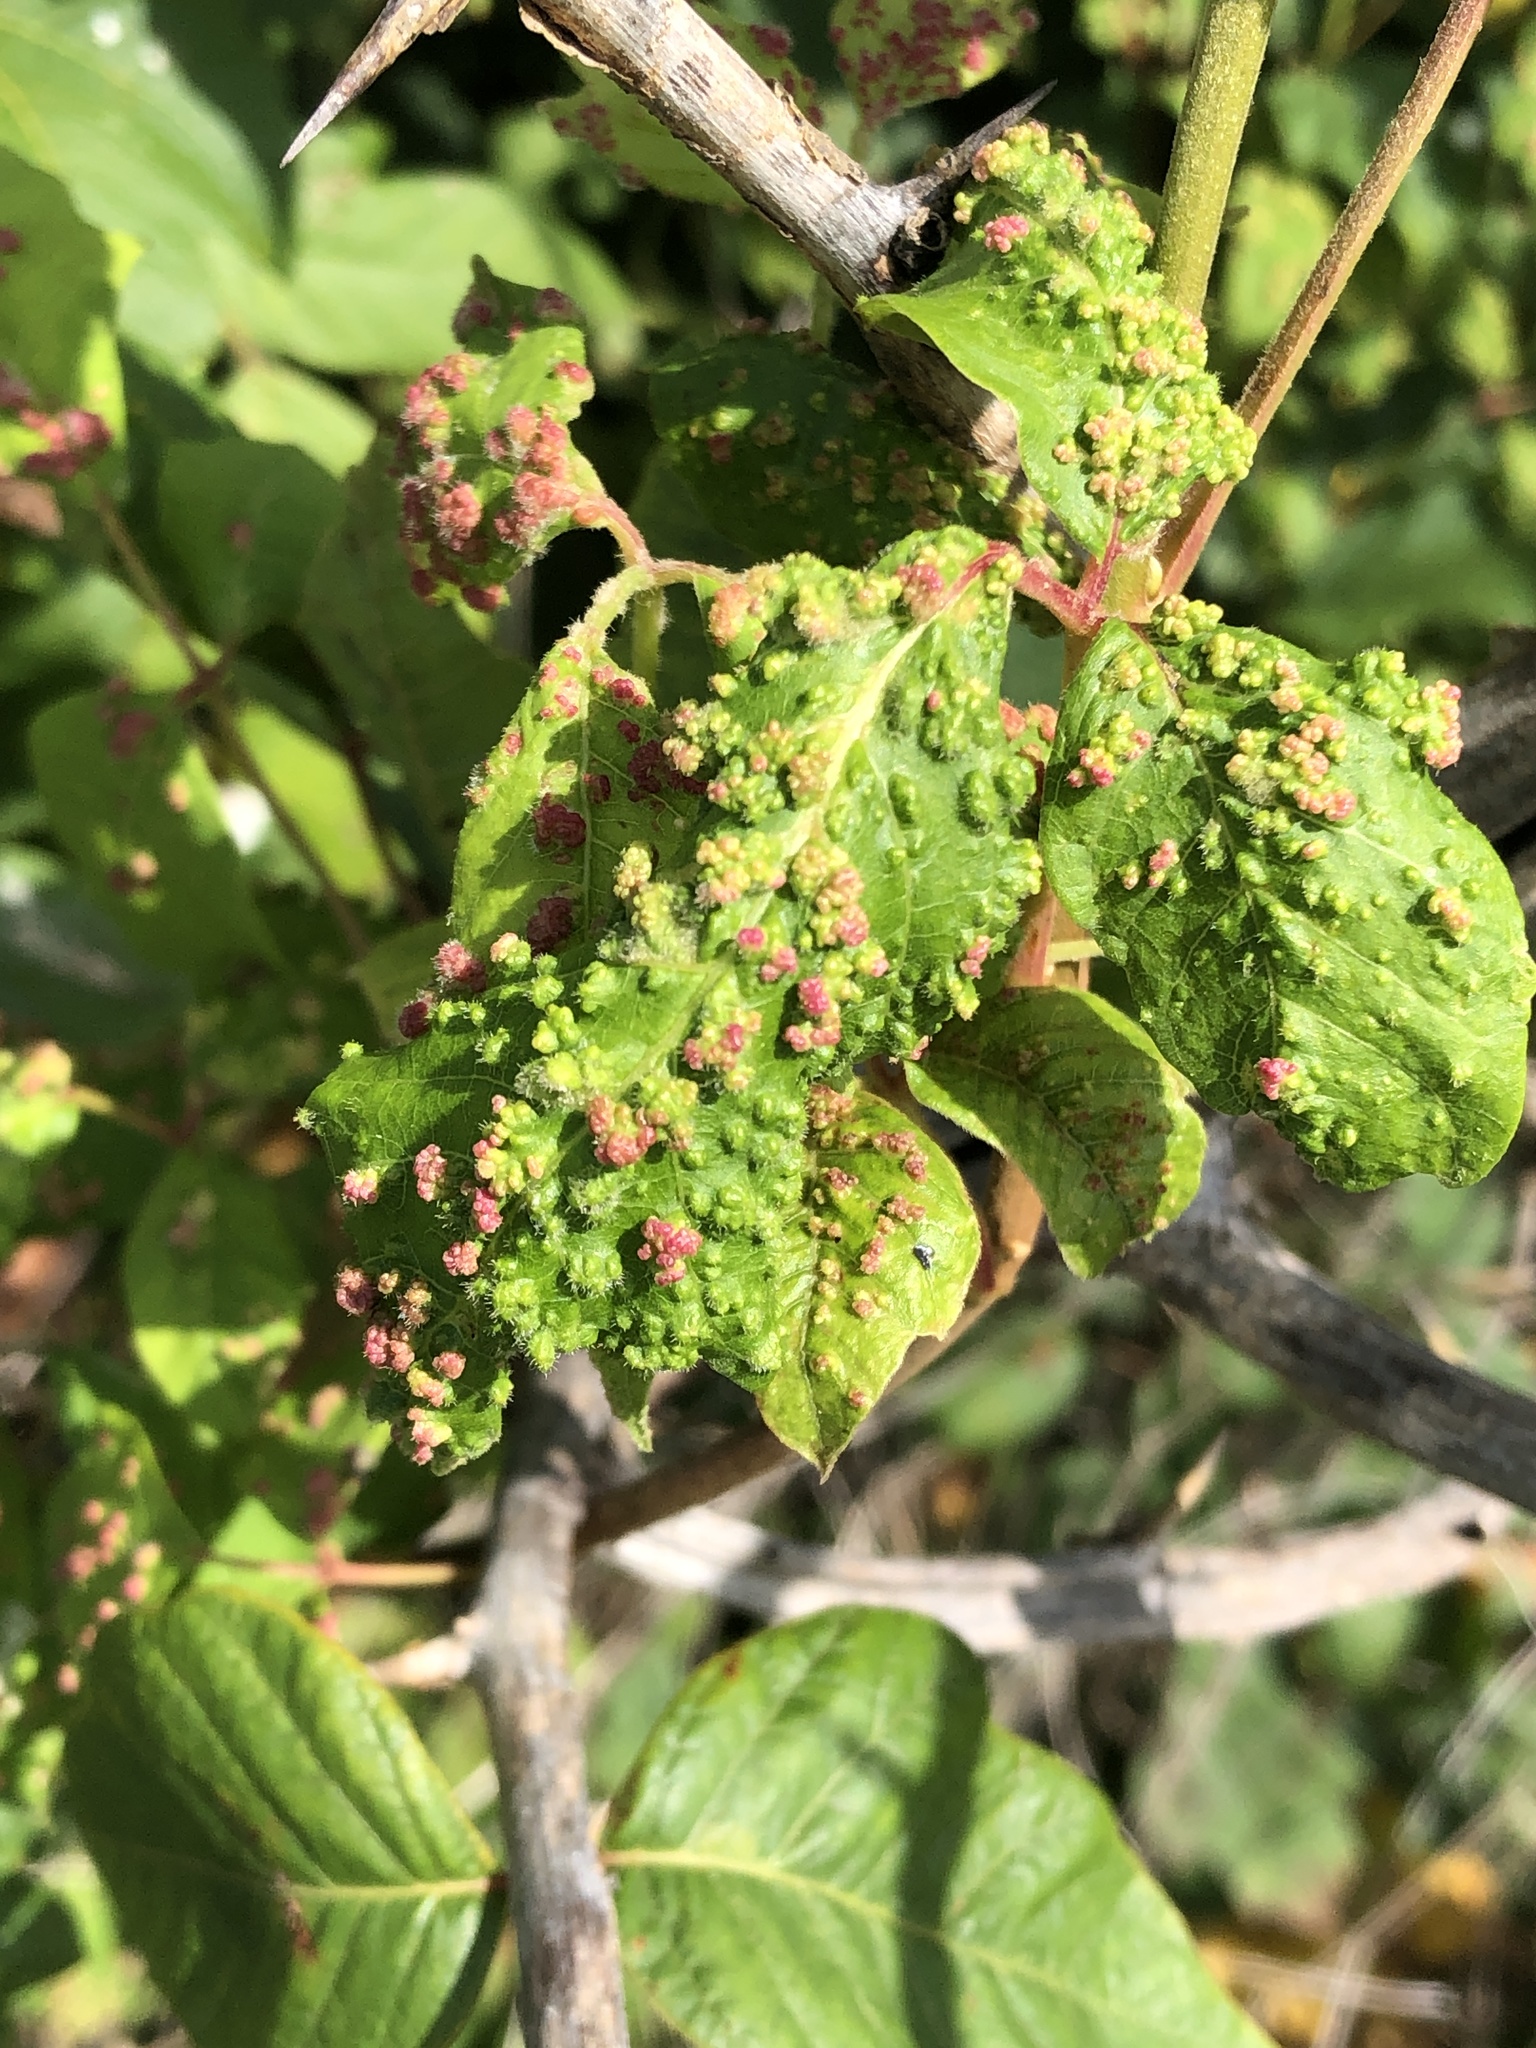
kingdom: Animalia
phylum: Arthropoda
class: Arachnida
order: Trombidiformes
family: Eriophyidae
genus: Aculops
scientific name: Aculops
